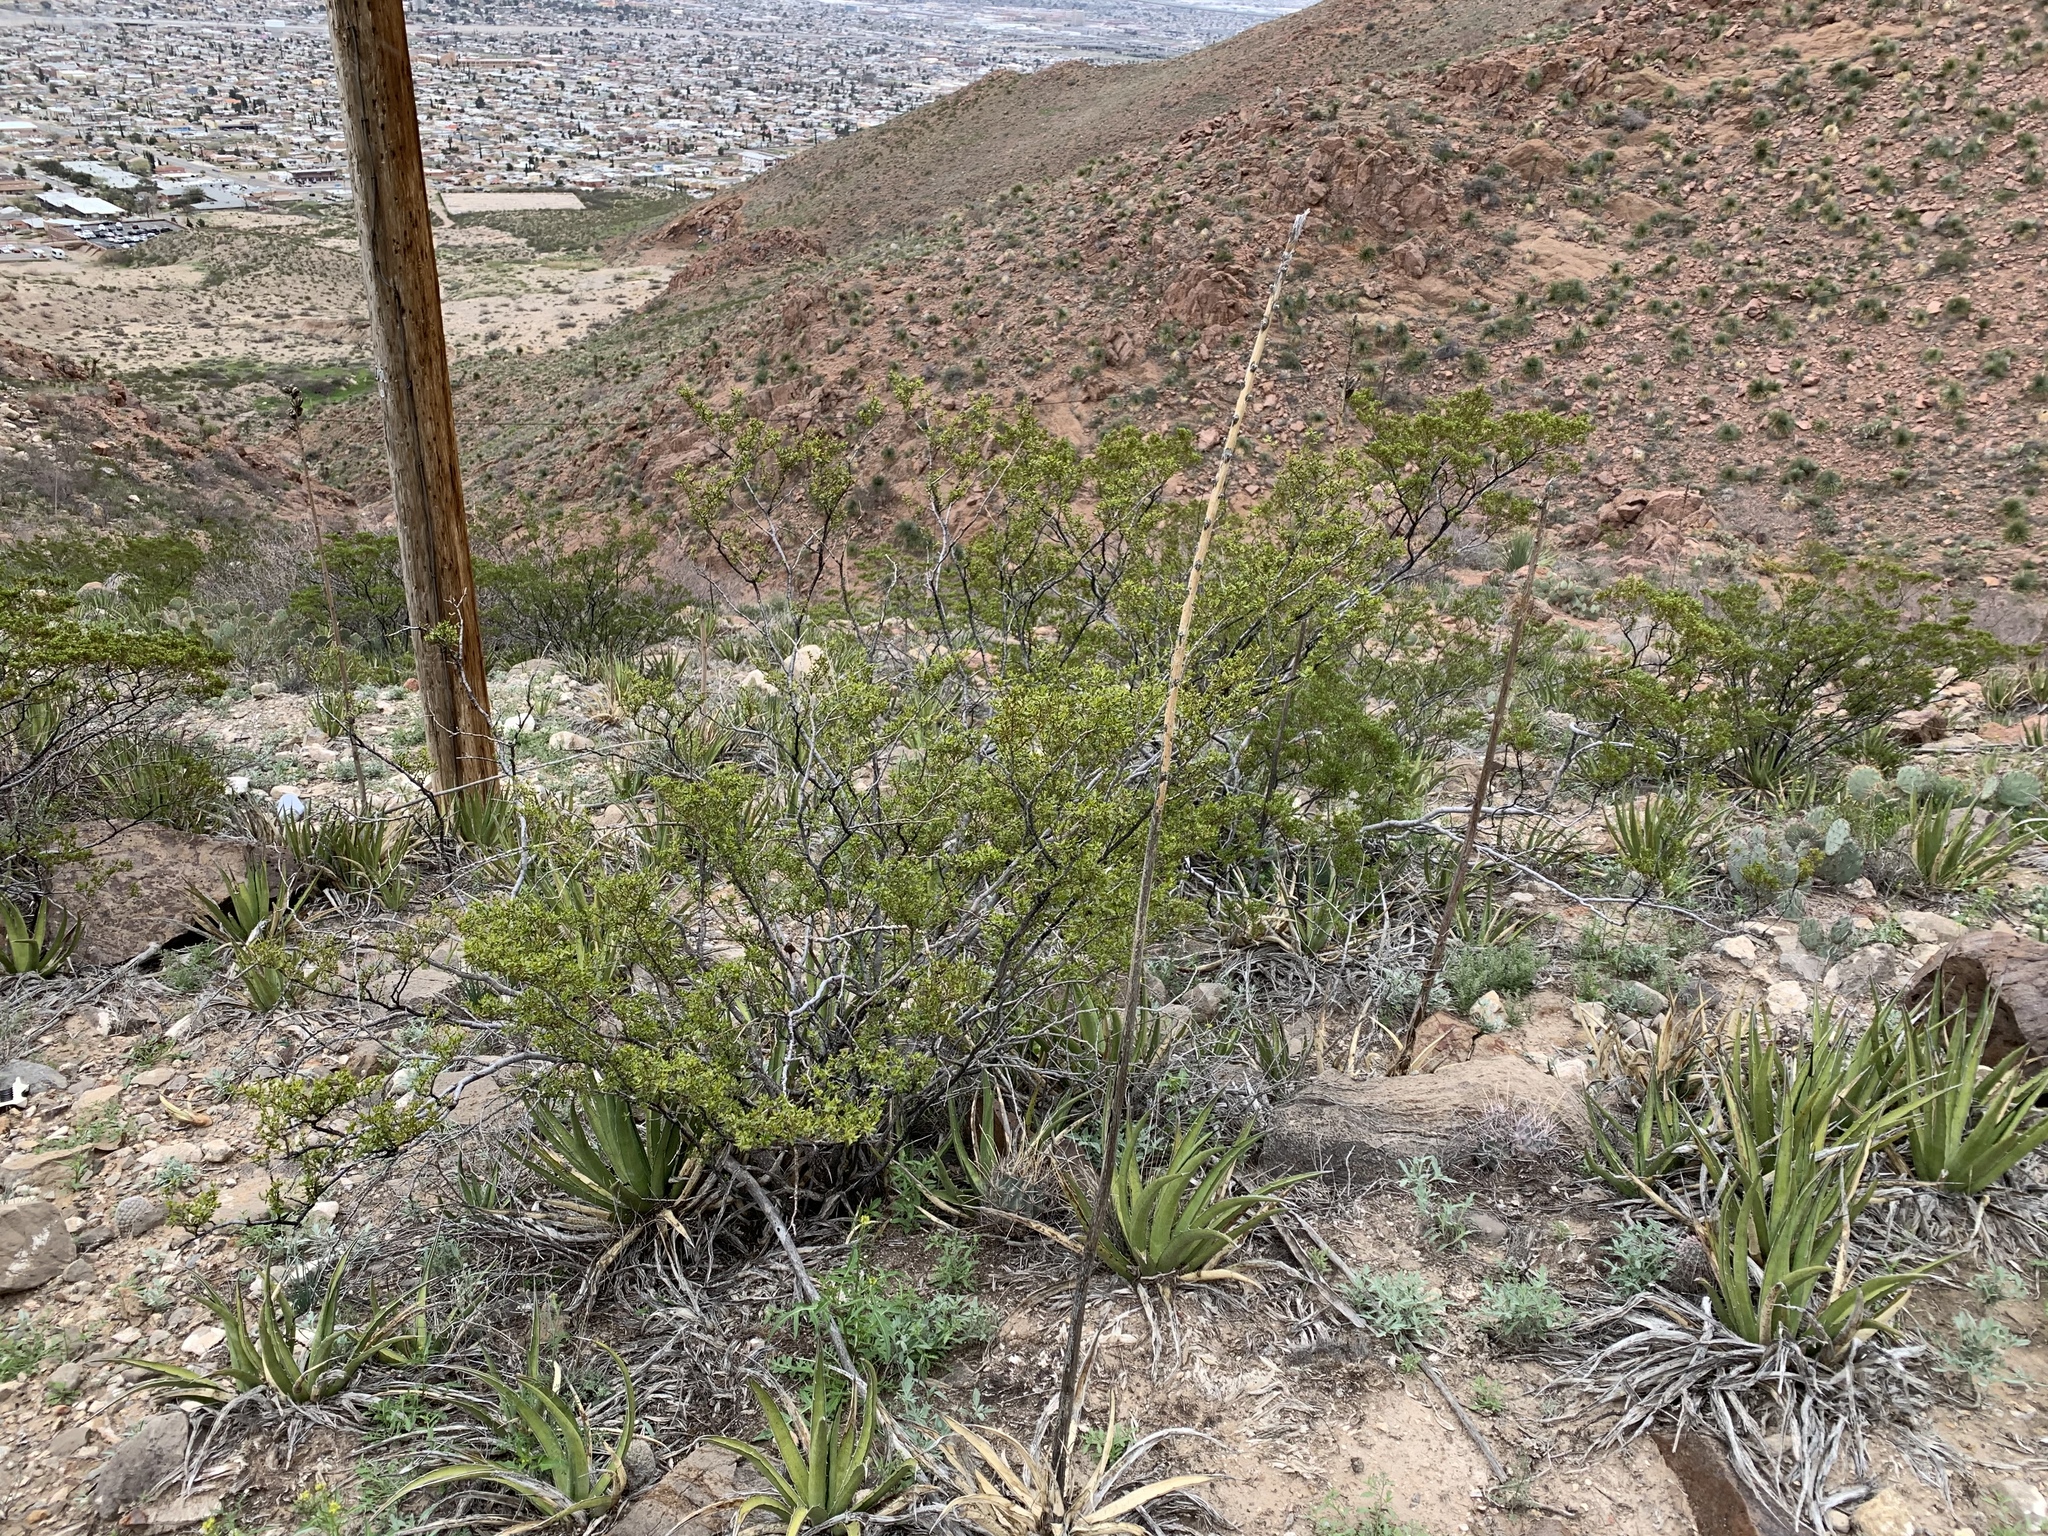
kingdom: Plantae
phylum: Tracheophyta
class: Magnoliopsida
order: Zygophyllales
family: Zygophyllaceae
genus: Larrea
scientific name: Larrea tridentata
